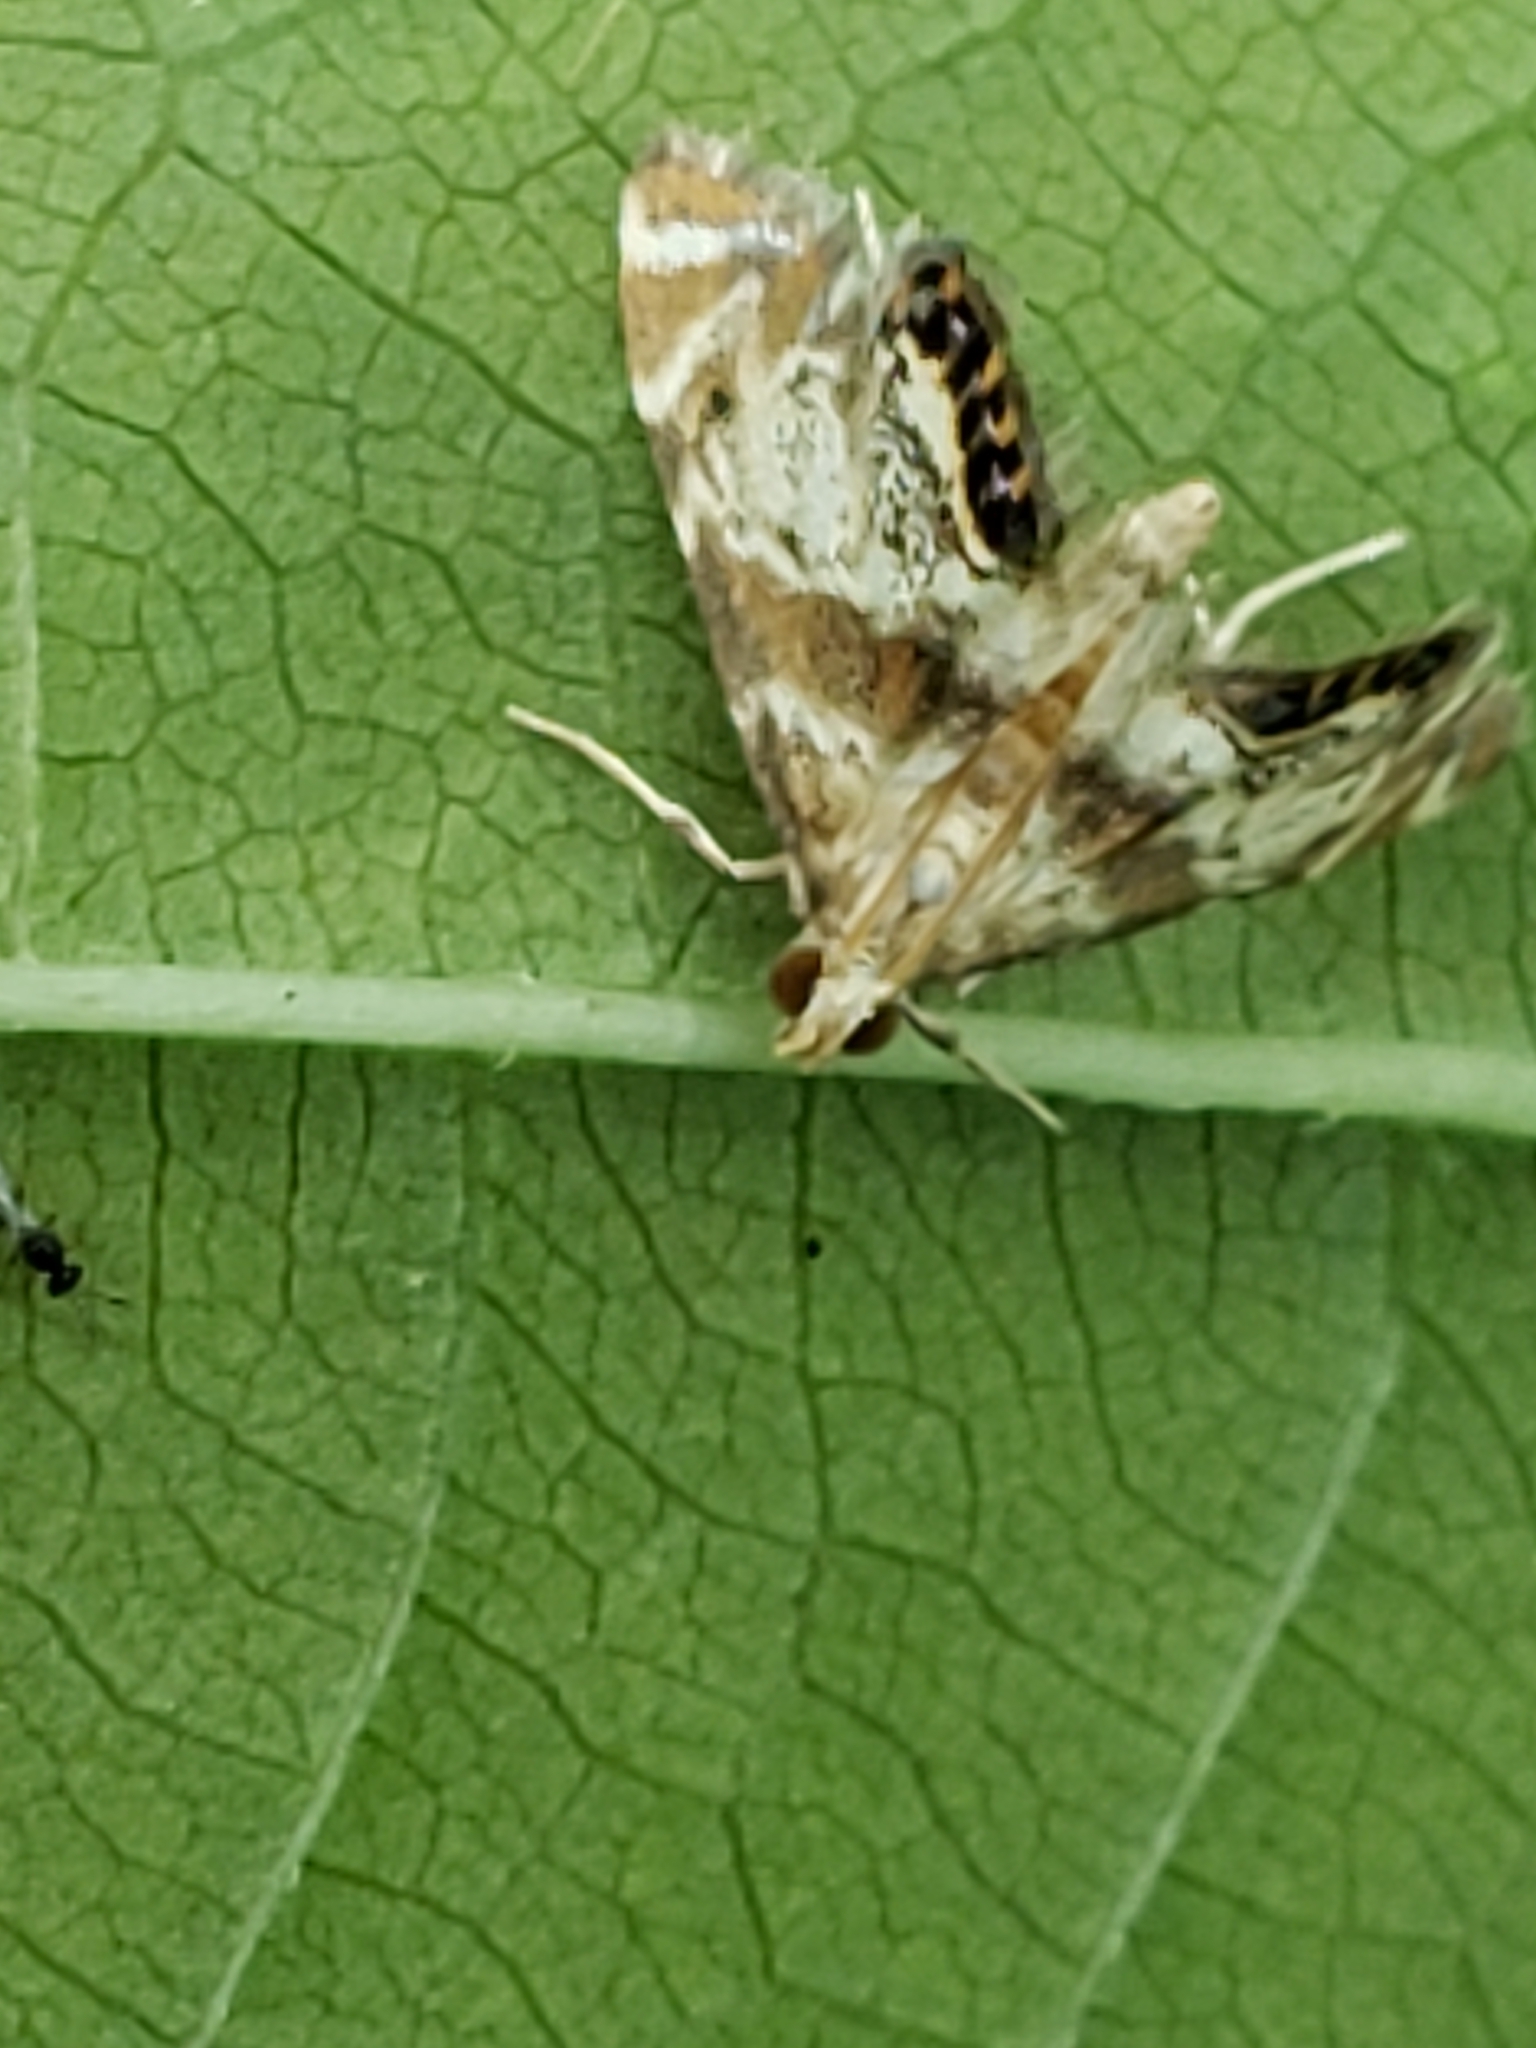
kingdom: Animalia
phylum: Arthropoda
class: Insecta
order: Lepidoptera
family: Crambidae
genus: Petrophila
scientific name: Petrophila fulicalis
